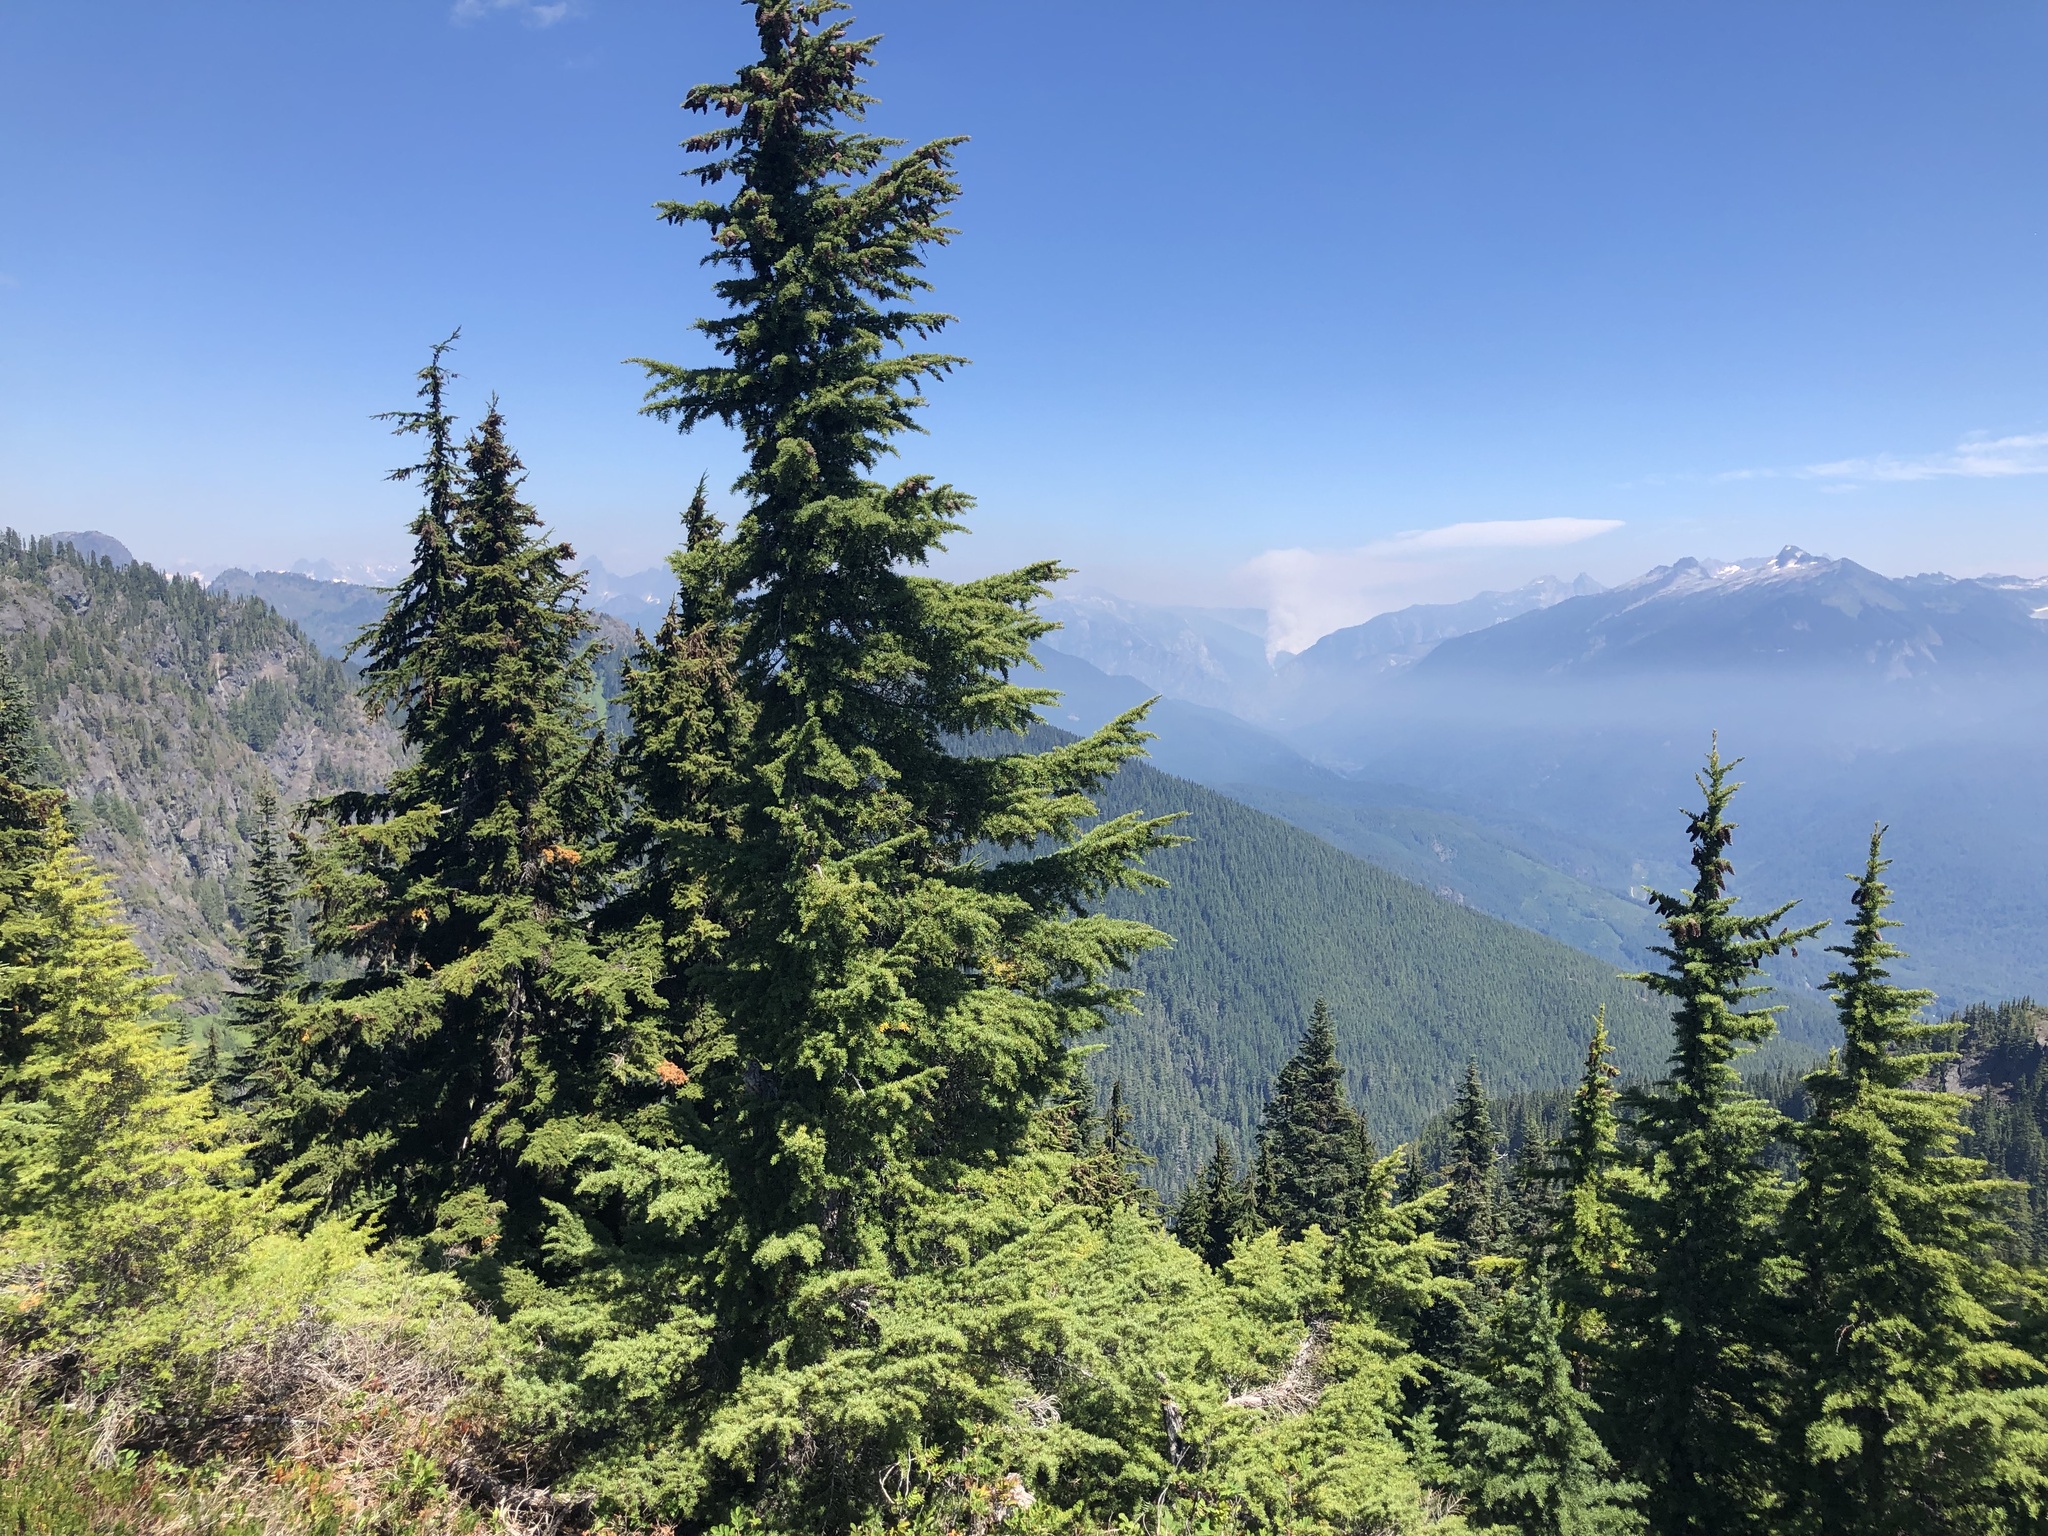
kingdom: Plantae
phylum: Tracheophyta
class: Pinopsida
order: Pinales
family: Pinaceae
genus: Tsuga
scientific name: Tsuga mertensiana
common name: Mountain hemlock
